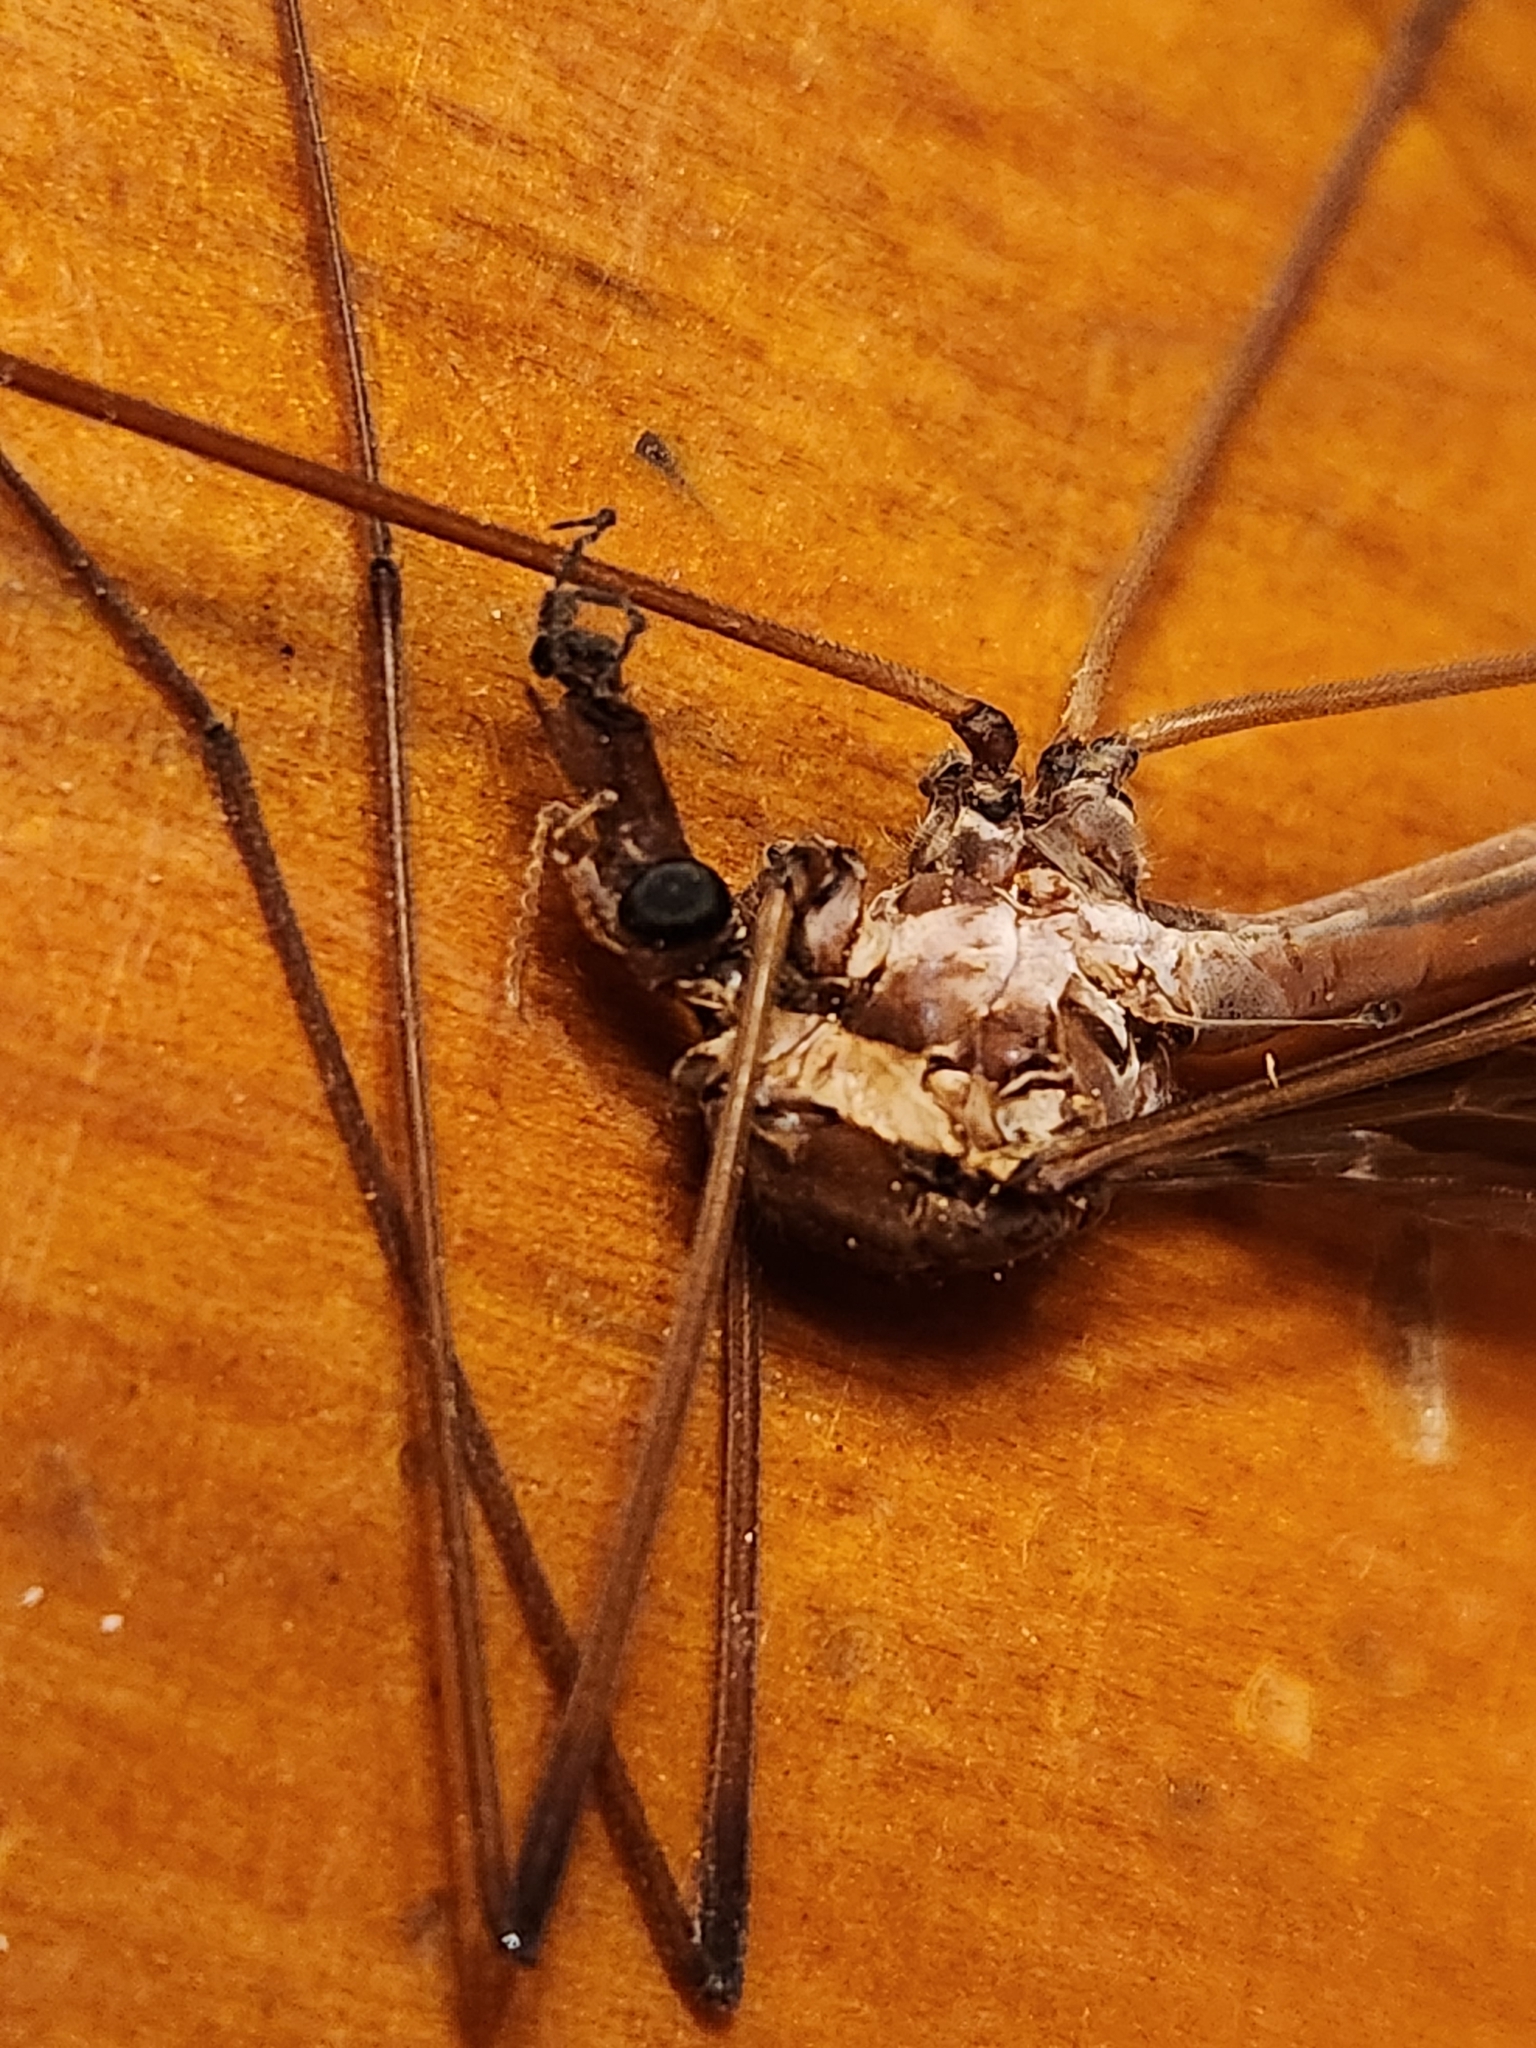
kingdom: Animalia
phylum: Arthropoda
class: Insecta
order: Diptera
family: Tipulidae
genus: Holorusia
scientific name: Holorusia hespera
